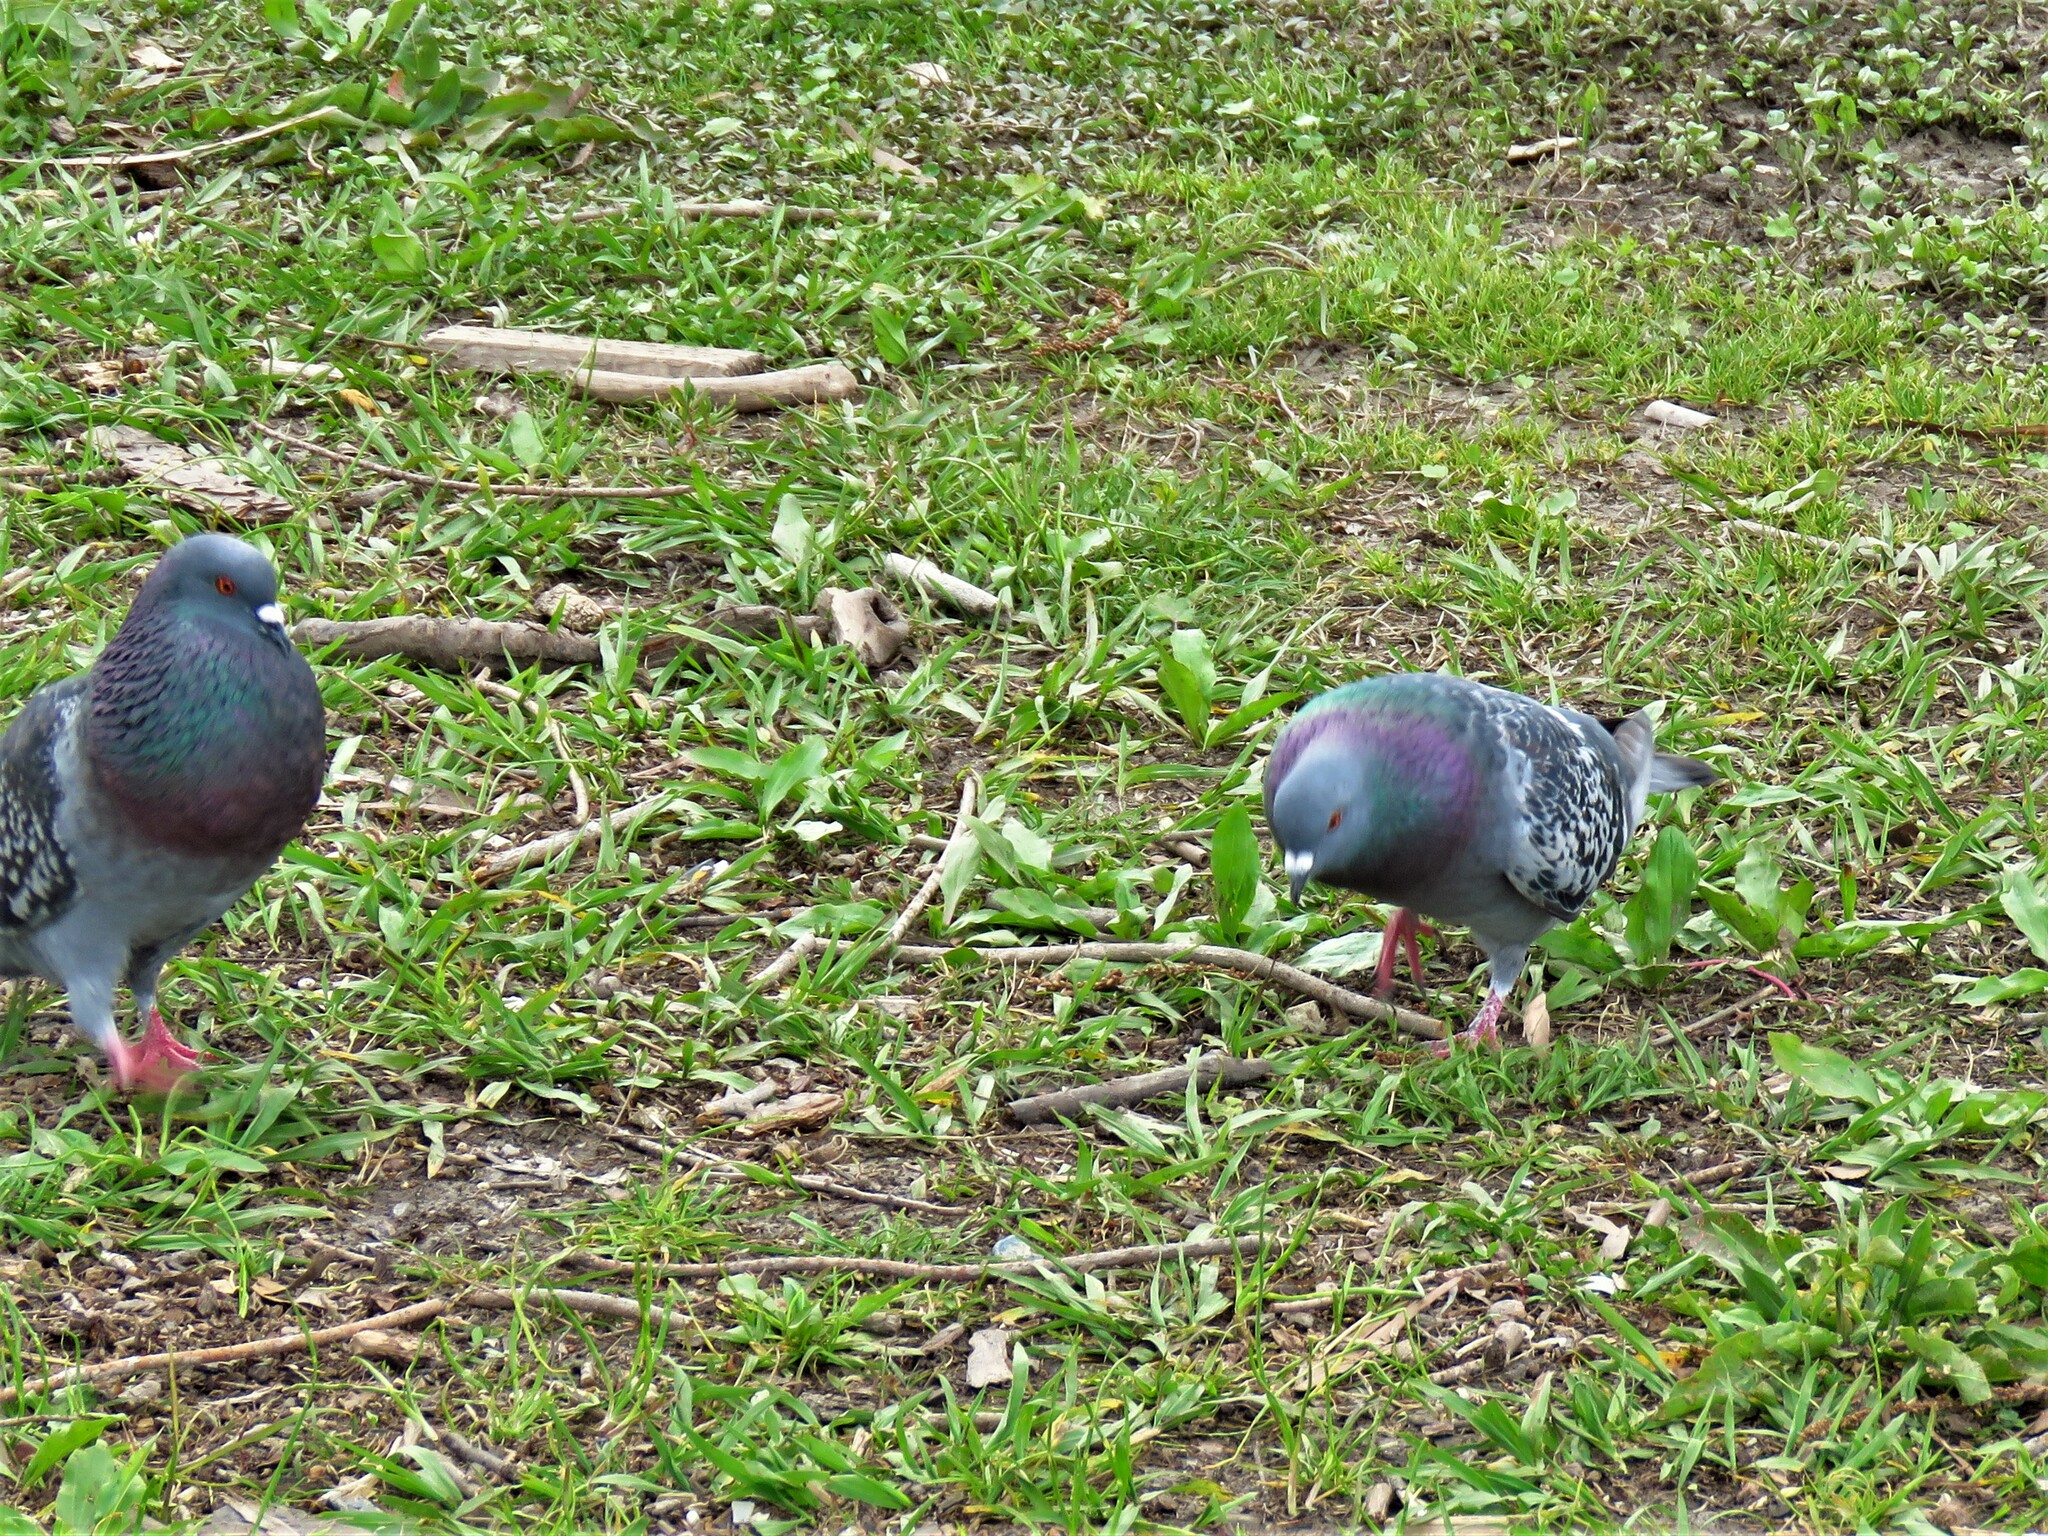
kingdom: Animalia
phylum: Chordata
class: Aves
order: Columbiformes
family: Columbidae
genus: Columba
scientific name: Columba livia
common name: Rock pigeon
